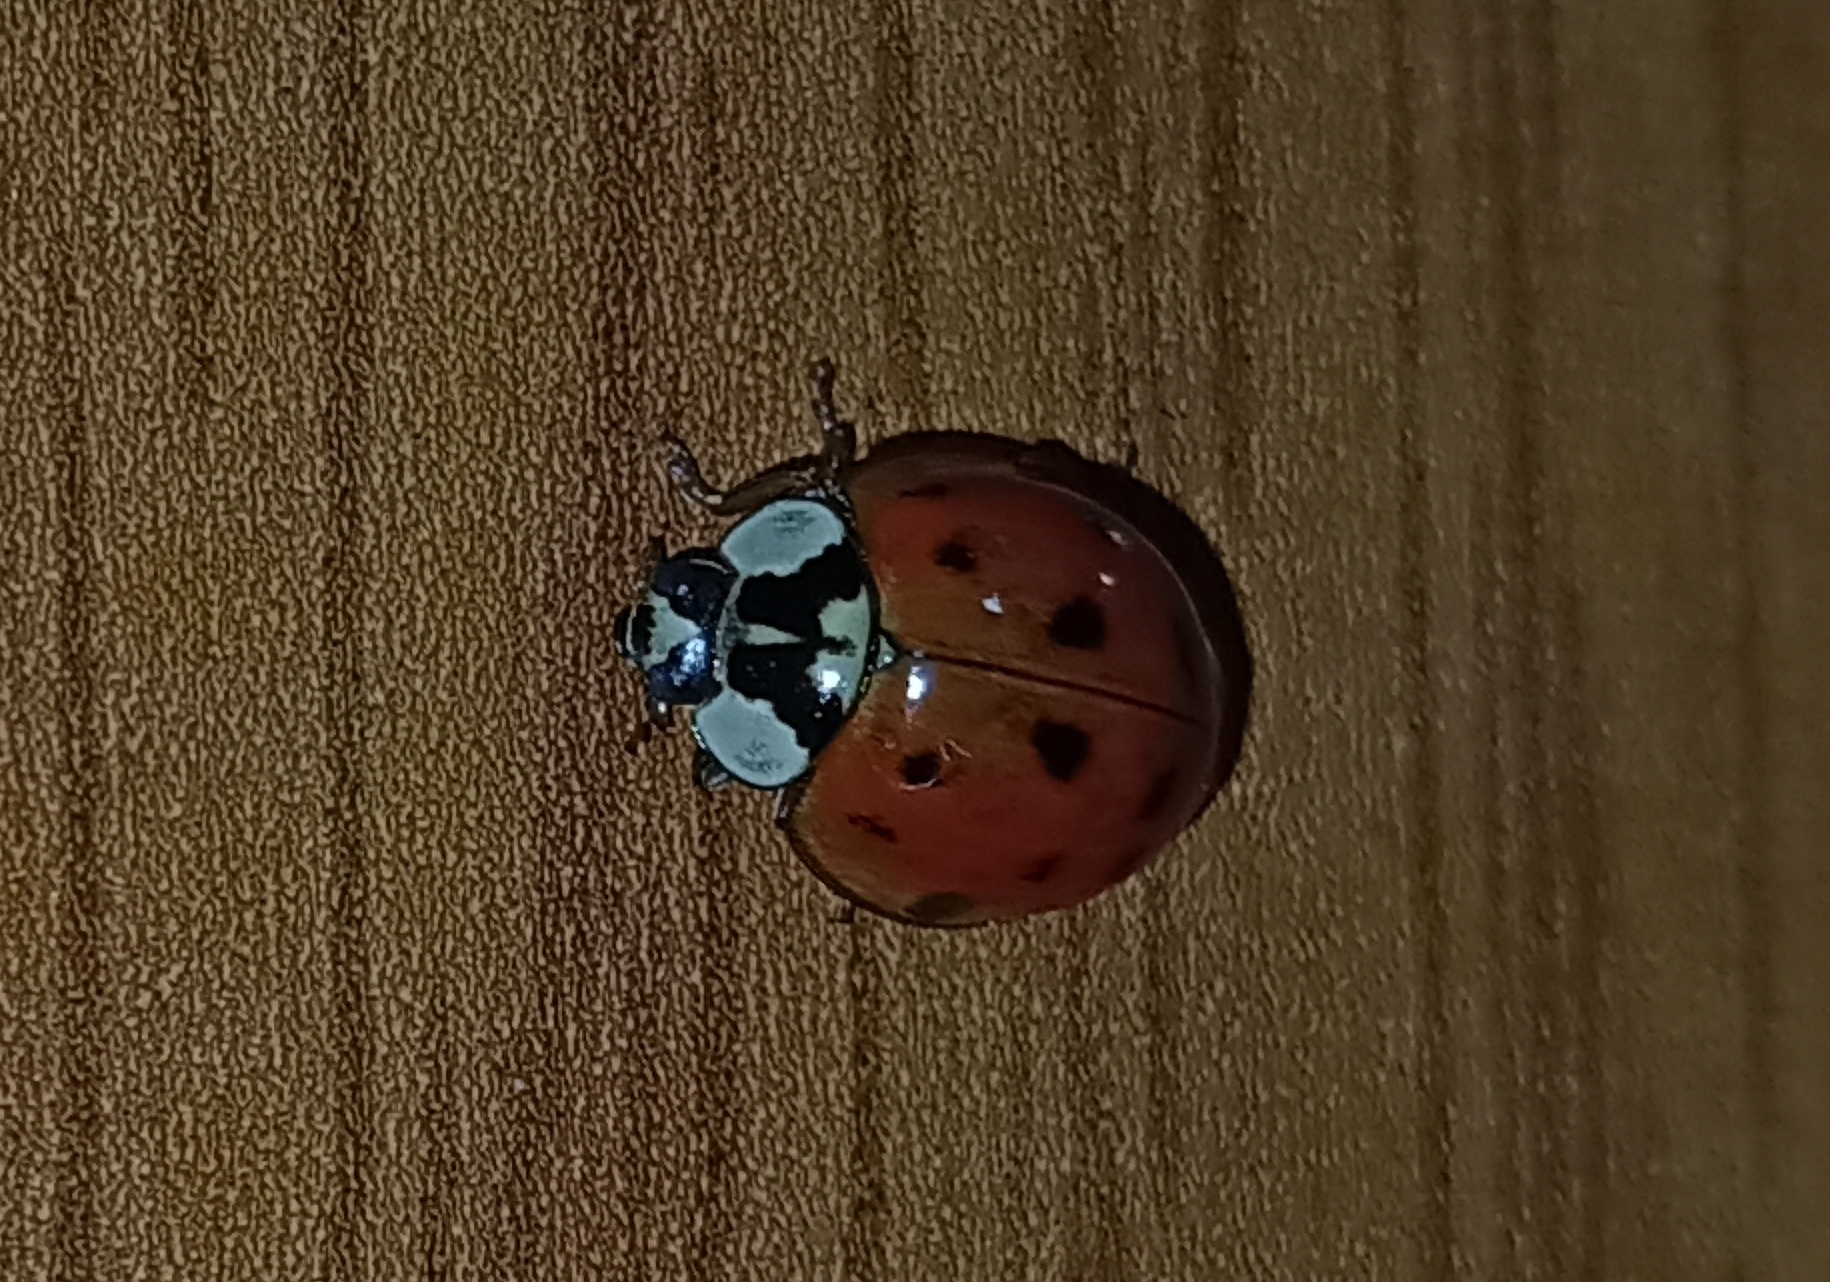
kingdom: Animalia
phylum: Arthropoda
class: Insecta
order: Coleoptera
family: Coccinellidae
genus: Harmonia
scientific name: Harmonia axyridis
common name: Harlequin ladybird
